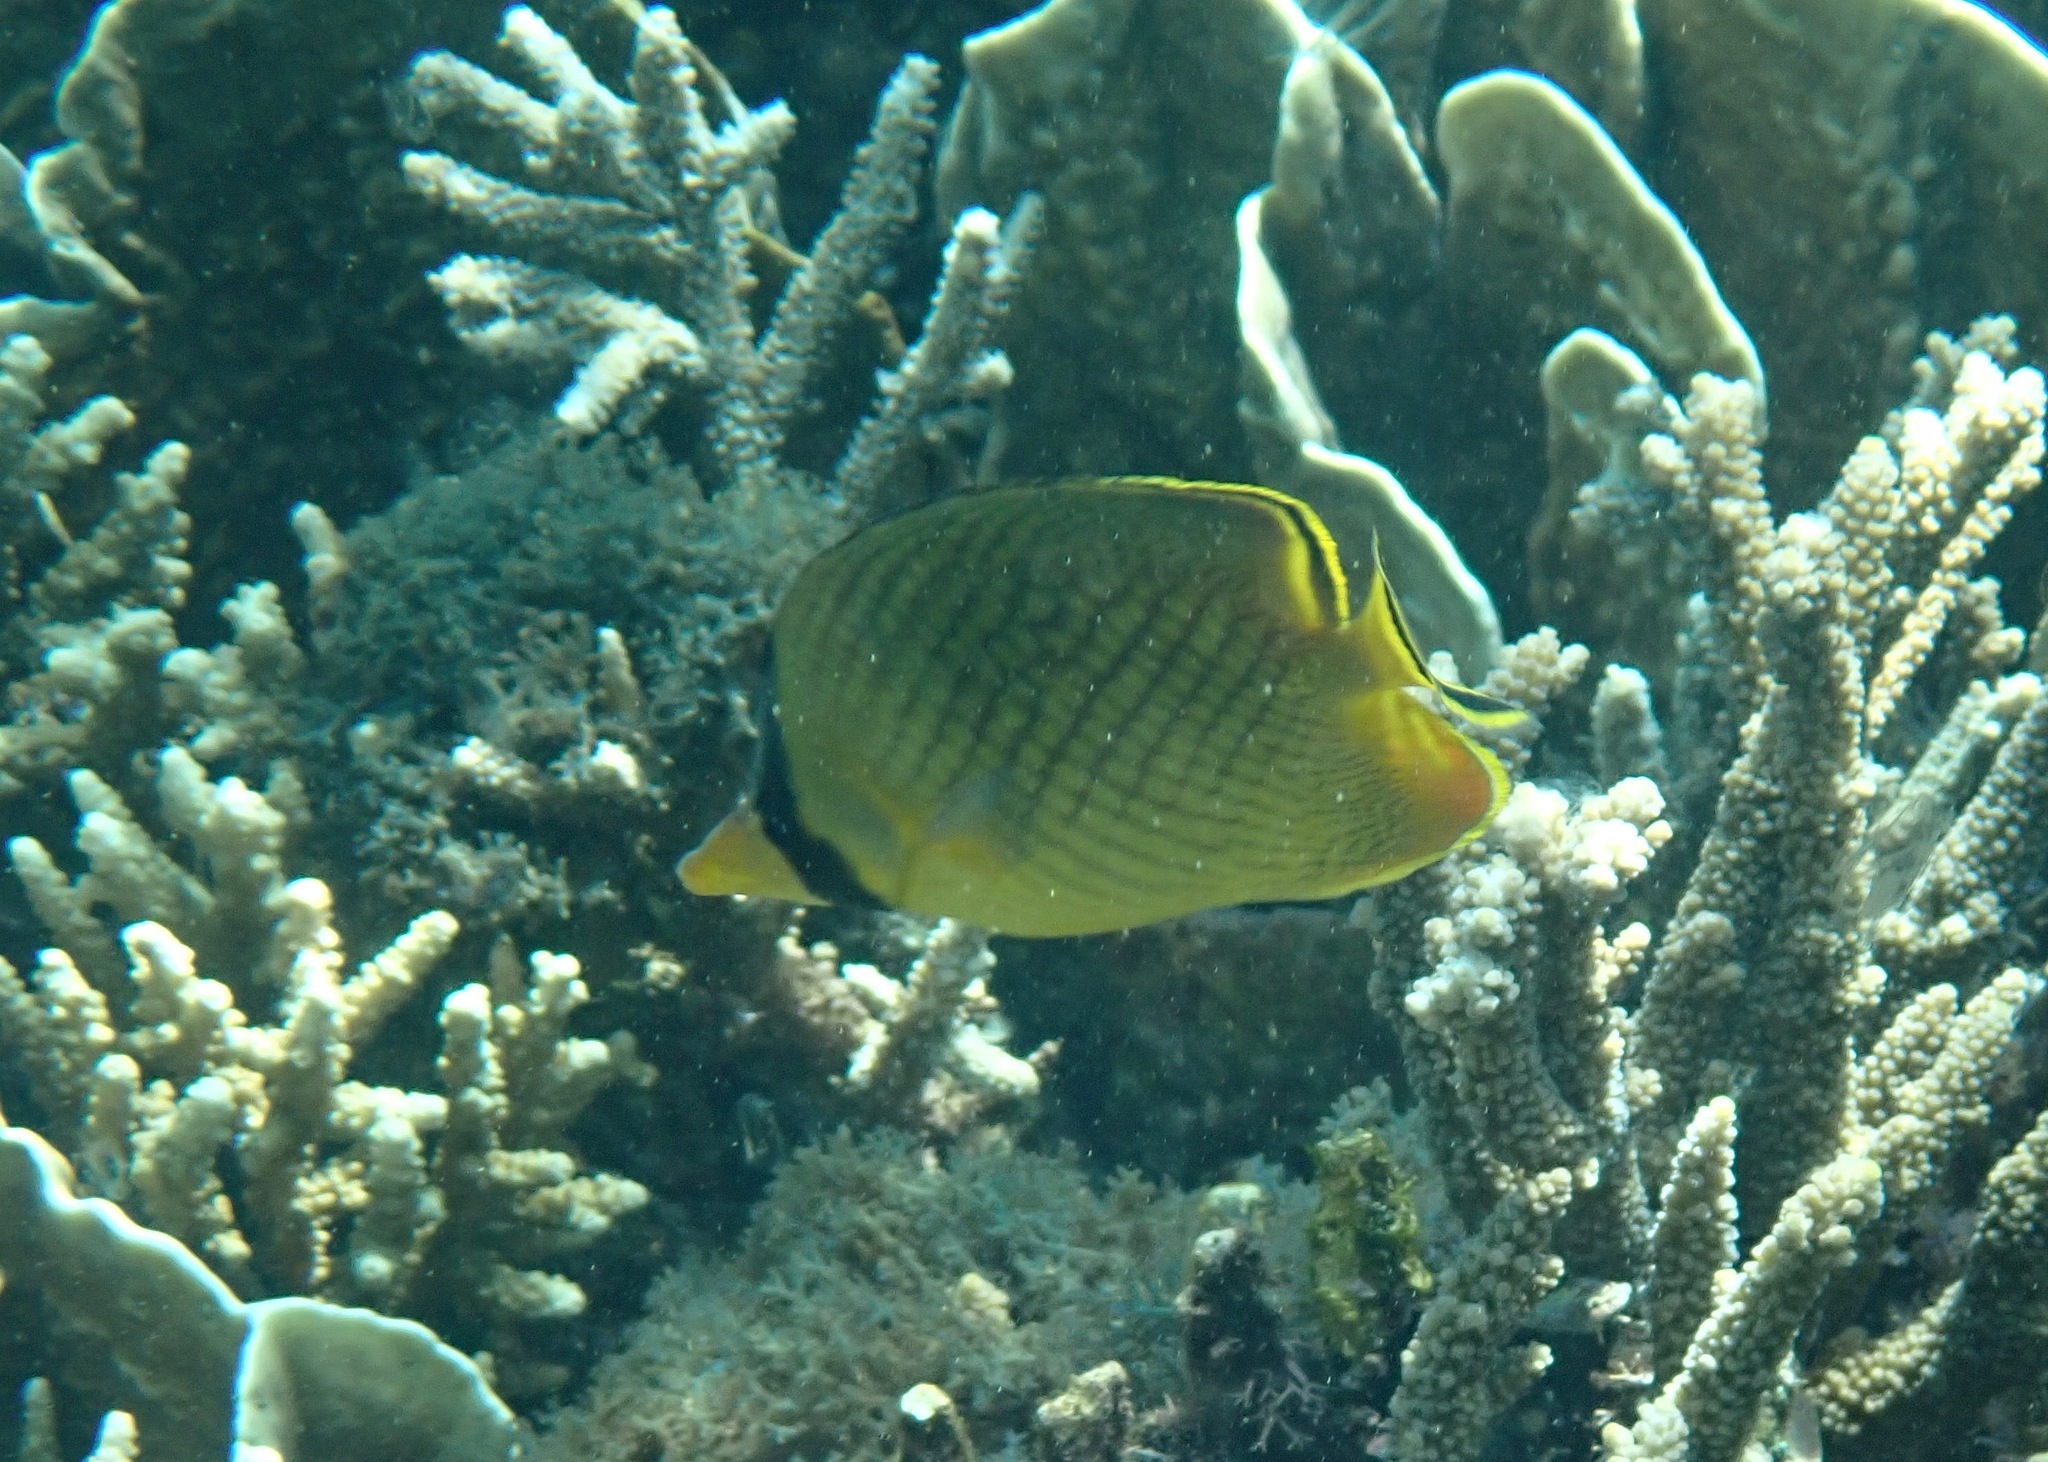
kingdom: Animalia
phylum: Chordata
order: Perciformes
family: Chaetodontidae
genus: Chaetodon
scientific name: Chaetodon rafflesii
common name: Latticed butterflyfish
